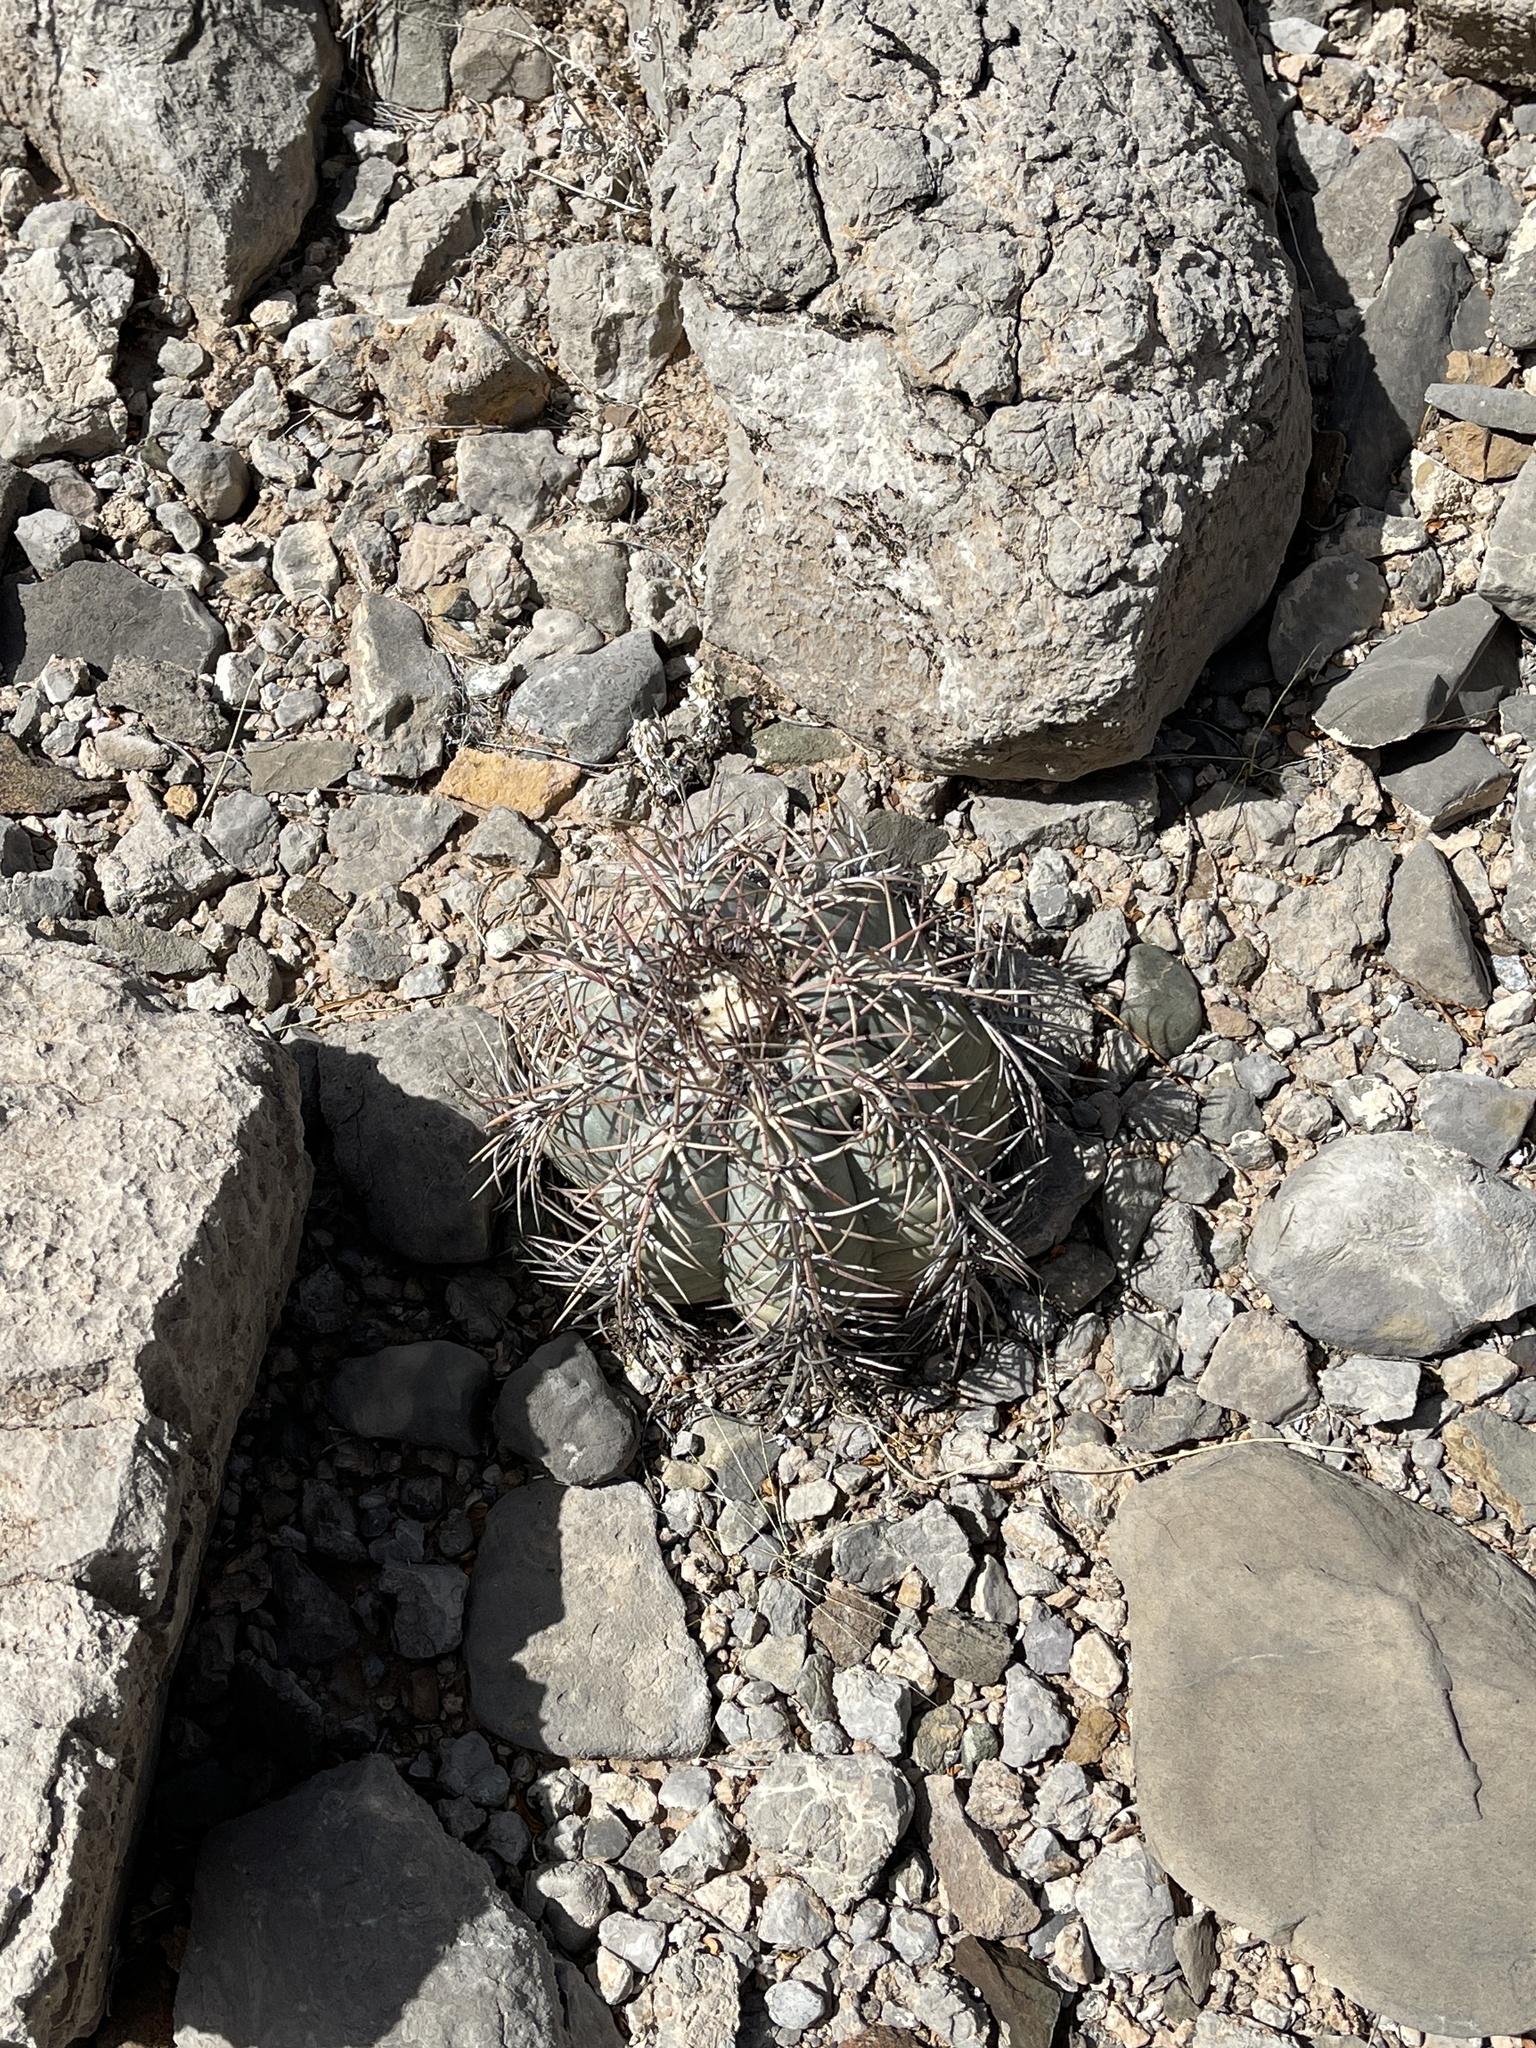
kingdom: Plantae
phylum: Tracheophyta
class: Magnoliopsida
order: Caryophyllales
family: Cactaceae
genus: Echinocactus
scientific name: Echinocactus horizonthalonius
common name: Devilshead
